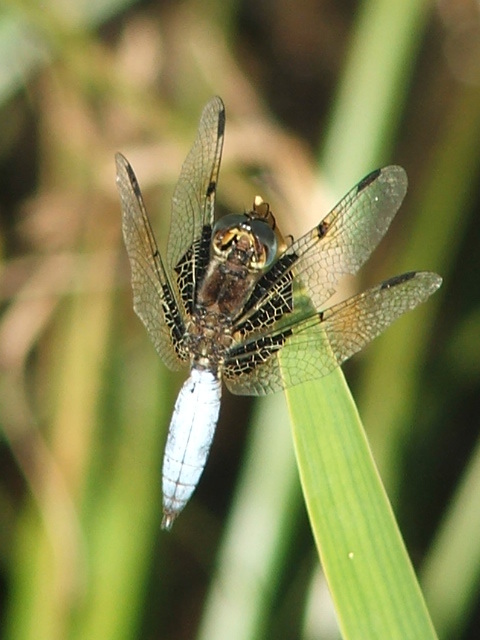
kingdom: Animalia
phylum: Arthropoda
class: Insecta
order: Odonata
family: Libellulidae
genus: Palpopleura
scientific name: Palpopleura jucunda
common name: Yellow-veined widow
